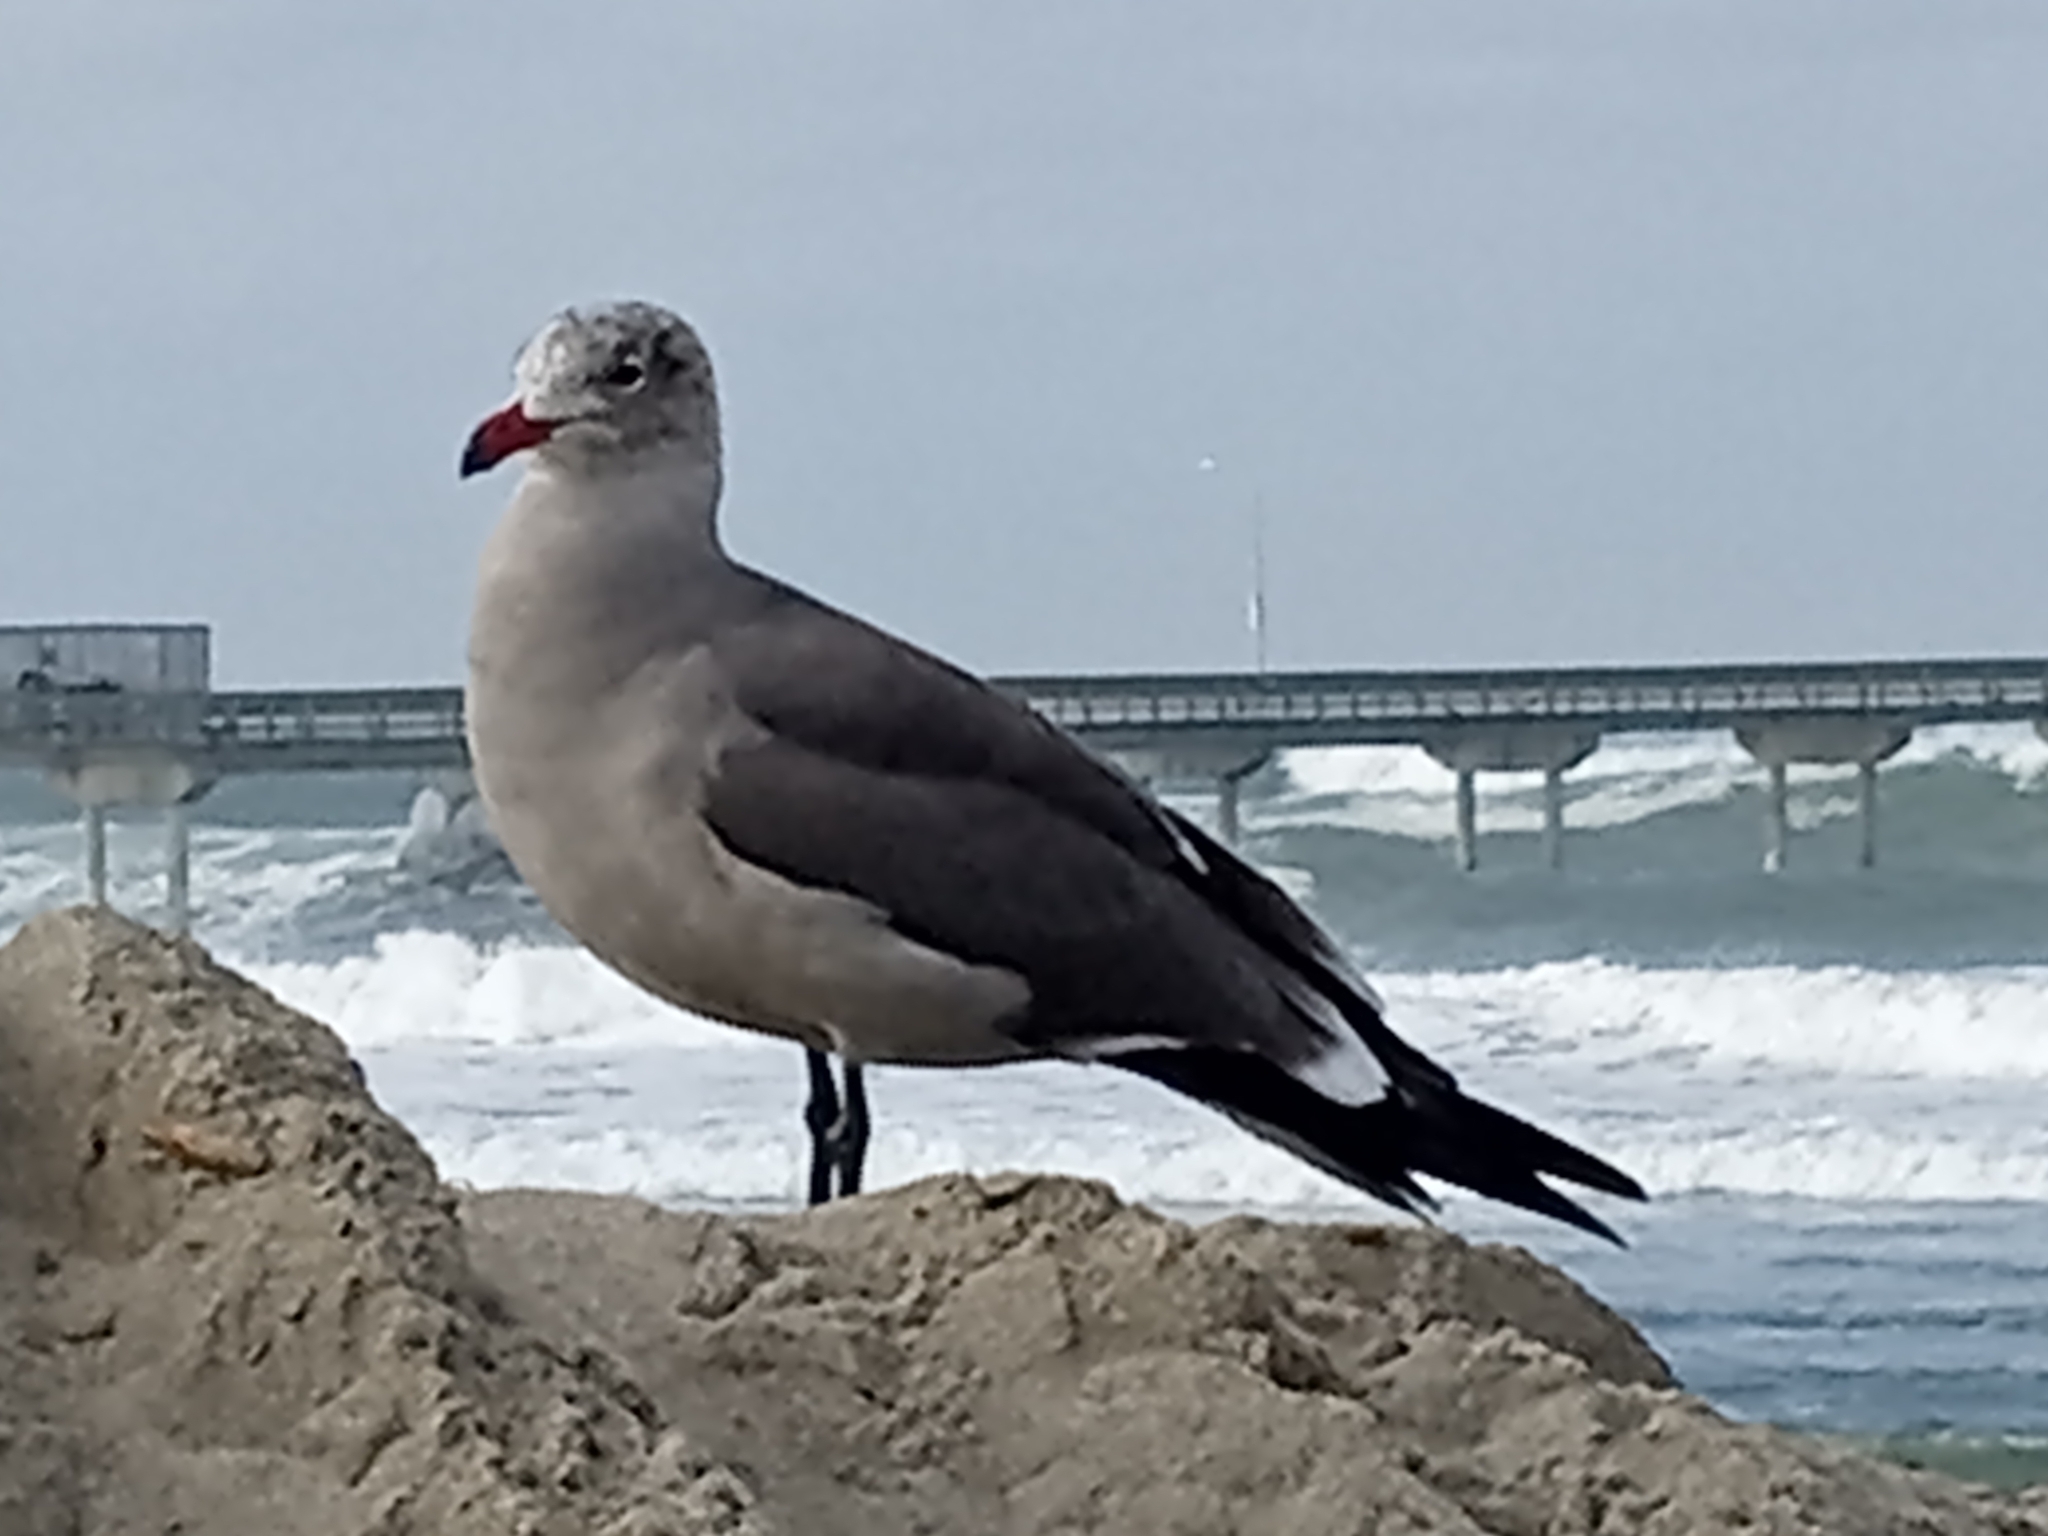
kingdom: Animalia
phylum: Chordata
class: Aves
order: Charadriiformes
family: Laridae
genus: Larus
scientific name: Larus heermanni
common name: Heermann's gull
